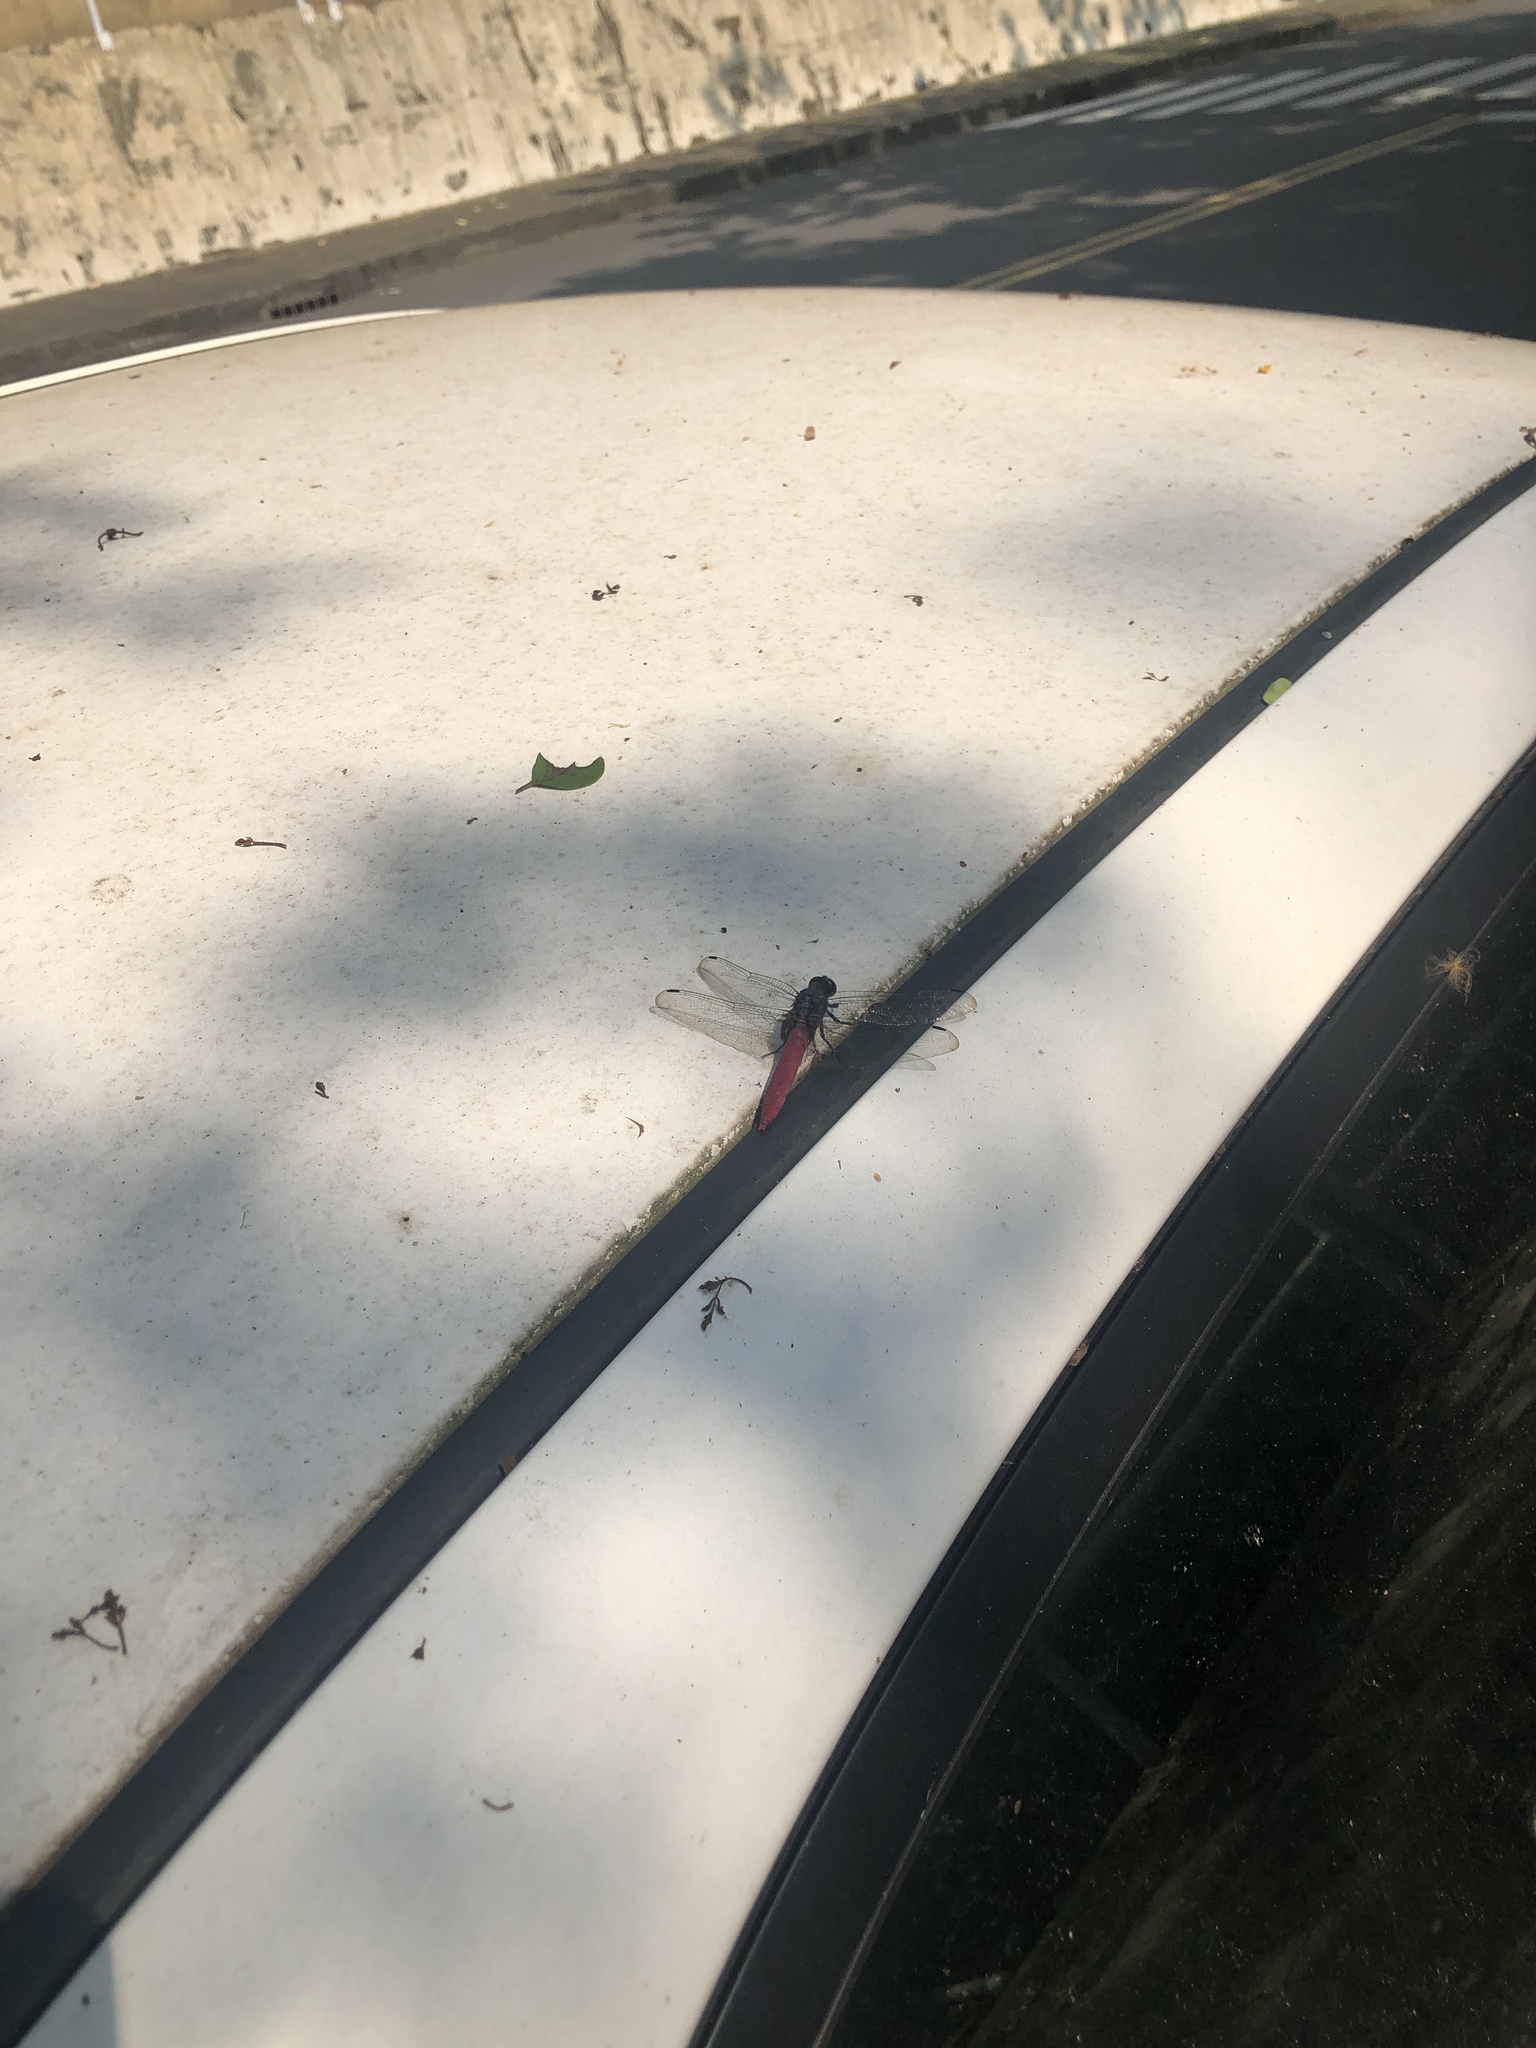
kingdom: Animalia
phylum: Arthropoda
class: Insecta
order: Odonata
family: Libellulidae
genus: Orthetrum
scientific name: Orthetrum pruinosum
